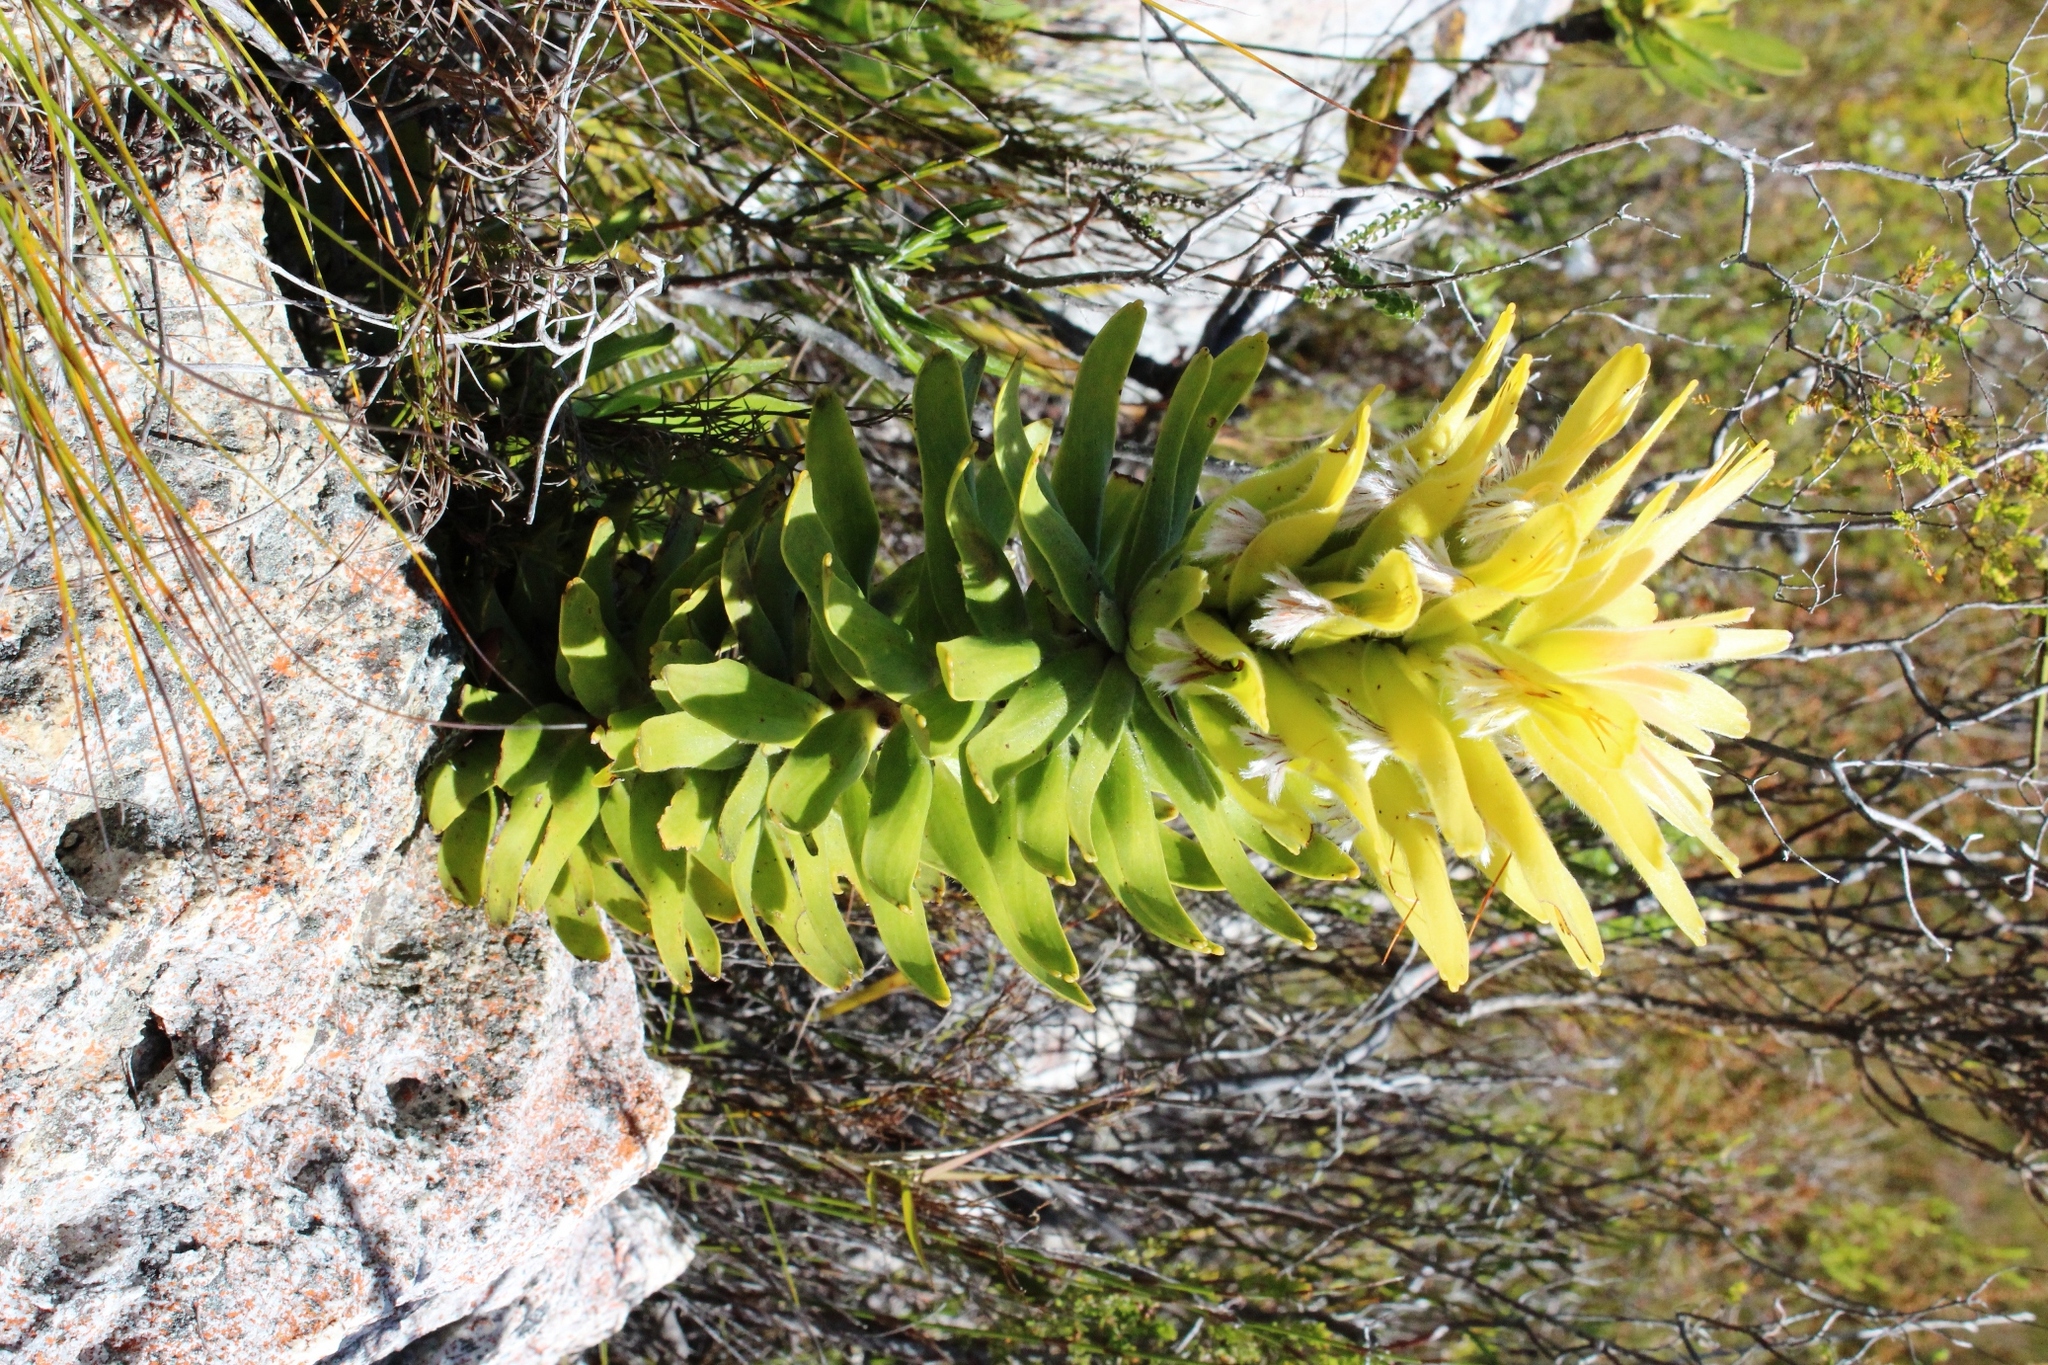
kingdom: Plantae
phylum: Tracheophyta
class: Magnoliopsida
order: Proteales
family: Proteaceae
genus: Mimetes
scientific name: Mimetes cucullatus
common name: Common pagoda
